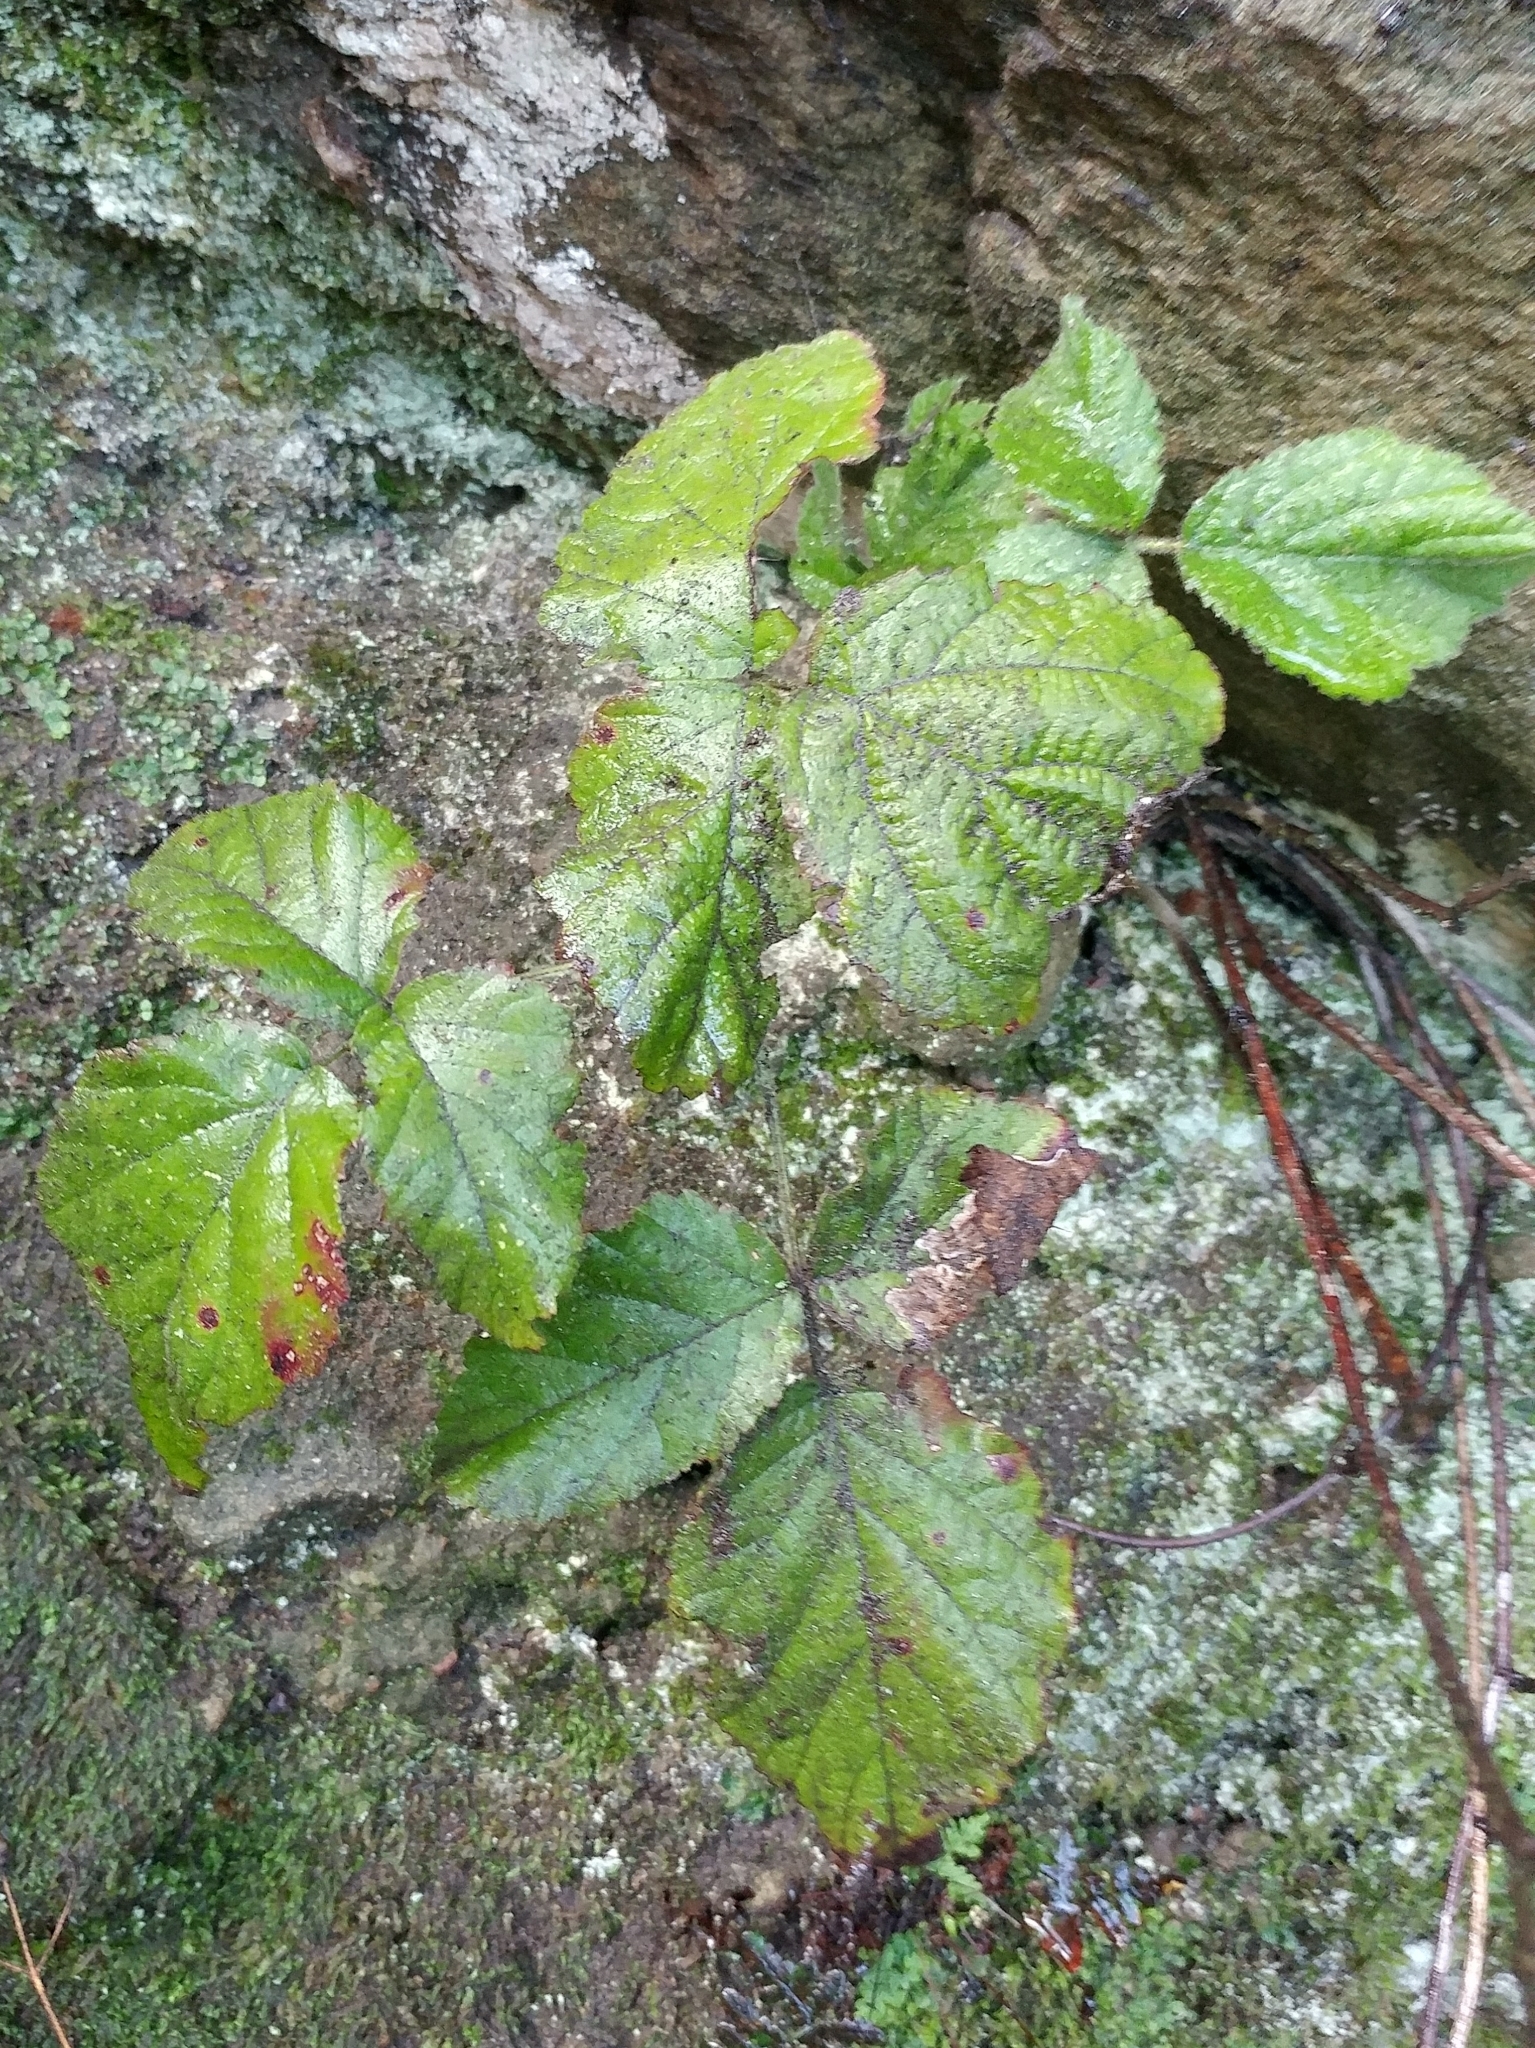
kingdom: Plantae
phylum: Tracheophyta
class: Magnoliopsida
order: Rosales
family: Rosaceae
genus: Rubus
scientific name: Rubus ursinus
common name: Pacific blackberry
